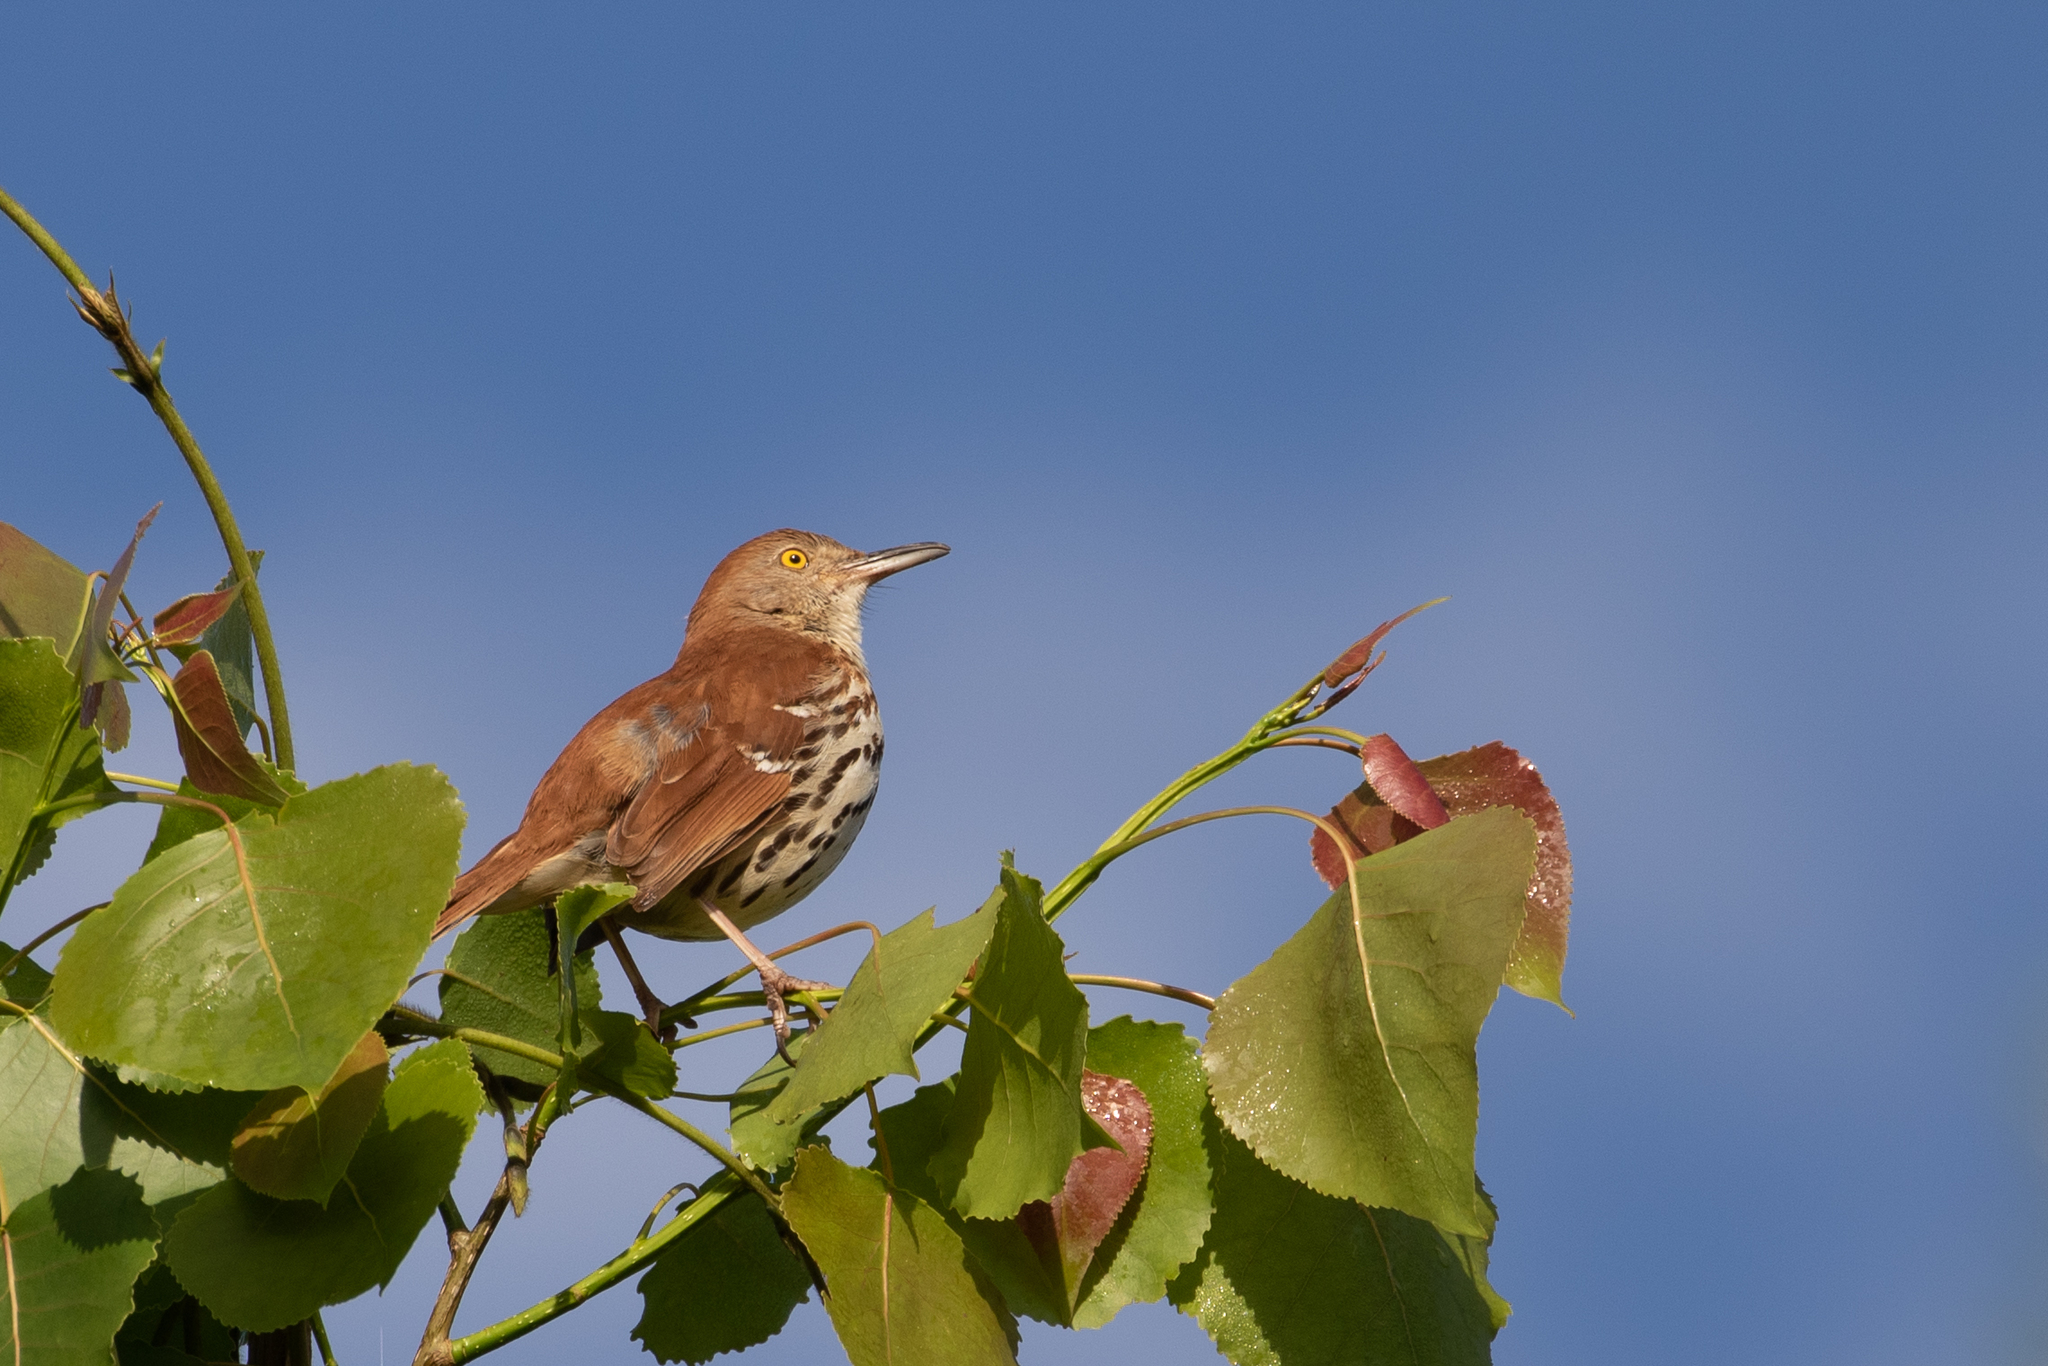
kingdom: Animalia
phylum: Chordata
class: Aves
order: Passeriformes
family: Mimidae
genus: Toxostoma
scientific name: Toxostoma rufum
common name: Brown thrasher
